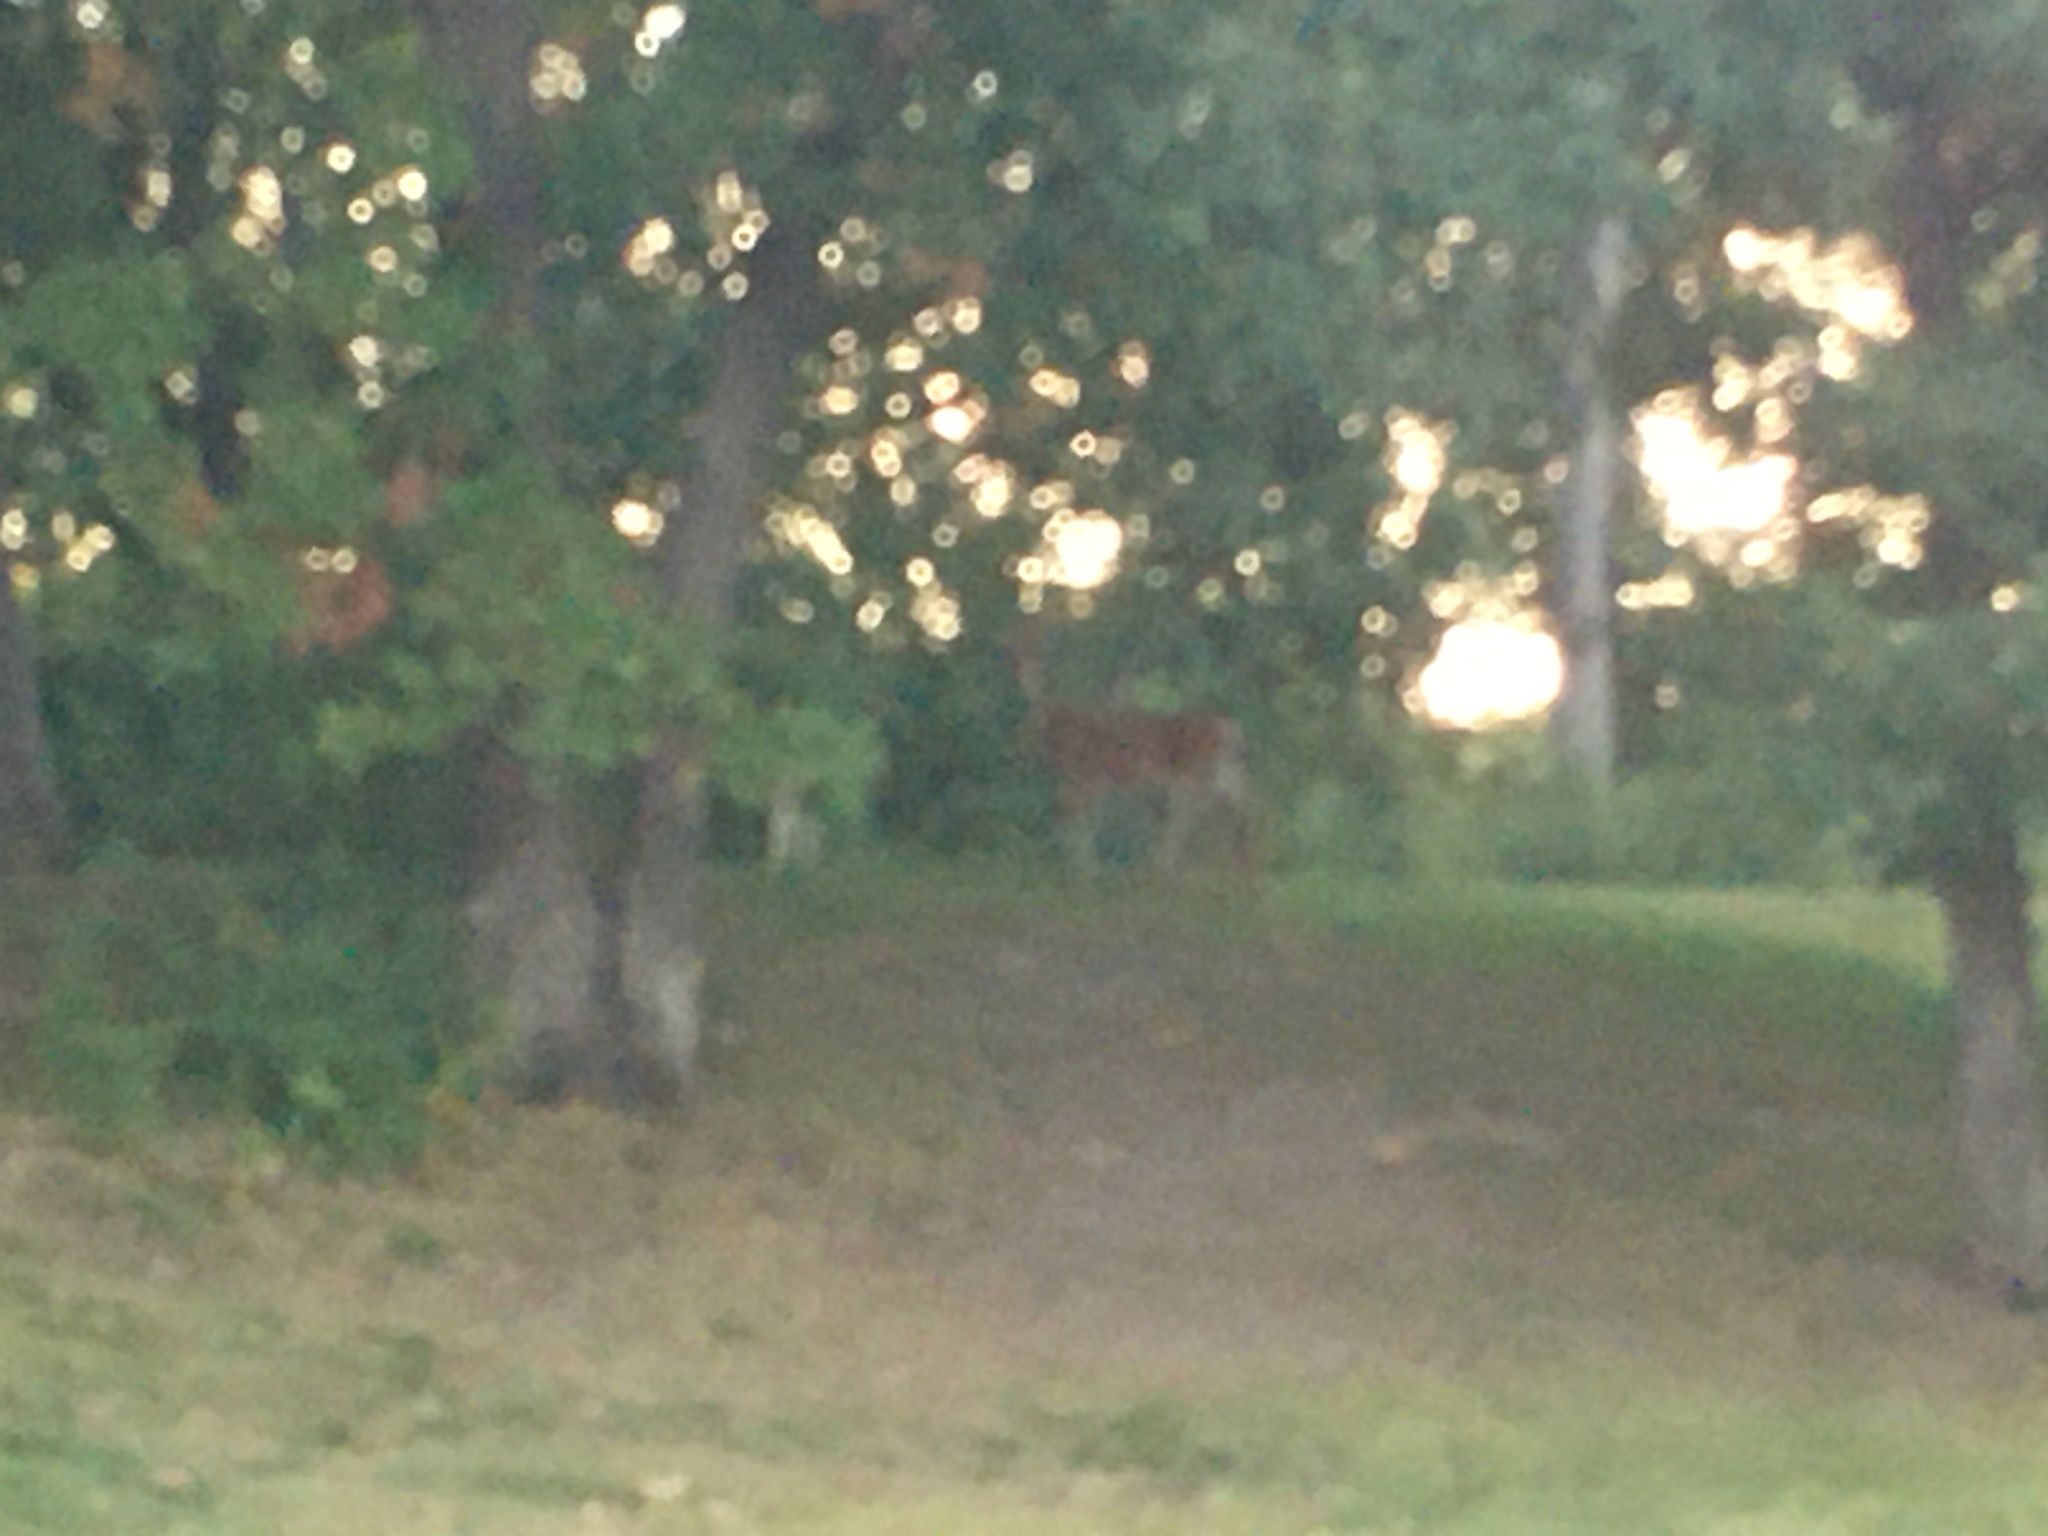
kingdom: Animalia
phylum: Chordata
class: Mammalia
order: Artiodactyla
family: Cervidae
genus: Odocoileus
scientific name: Odocoileus virginianus
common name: White-tailed deer
